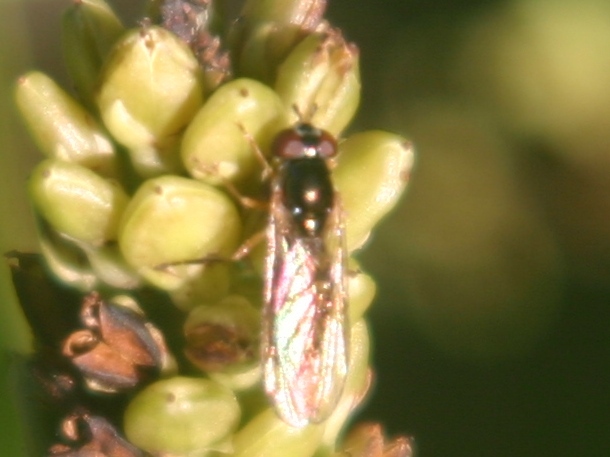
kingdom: Animalia
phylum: Arthropoda
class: Insecta
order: Diptera
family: Syrphidae
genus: Melanostoma
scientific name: Melanostoma fasciatum
